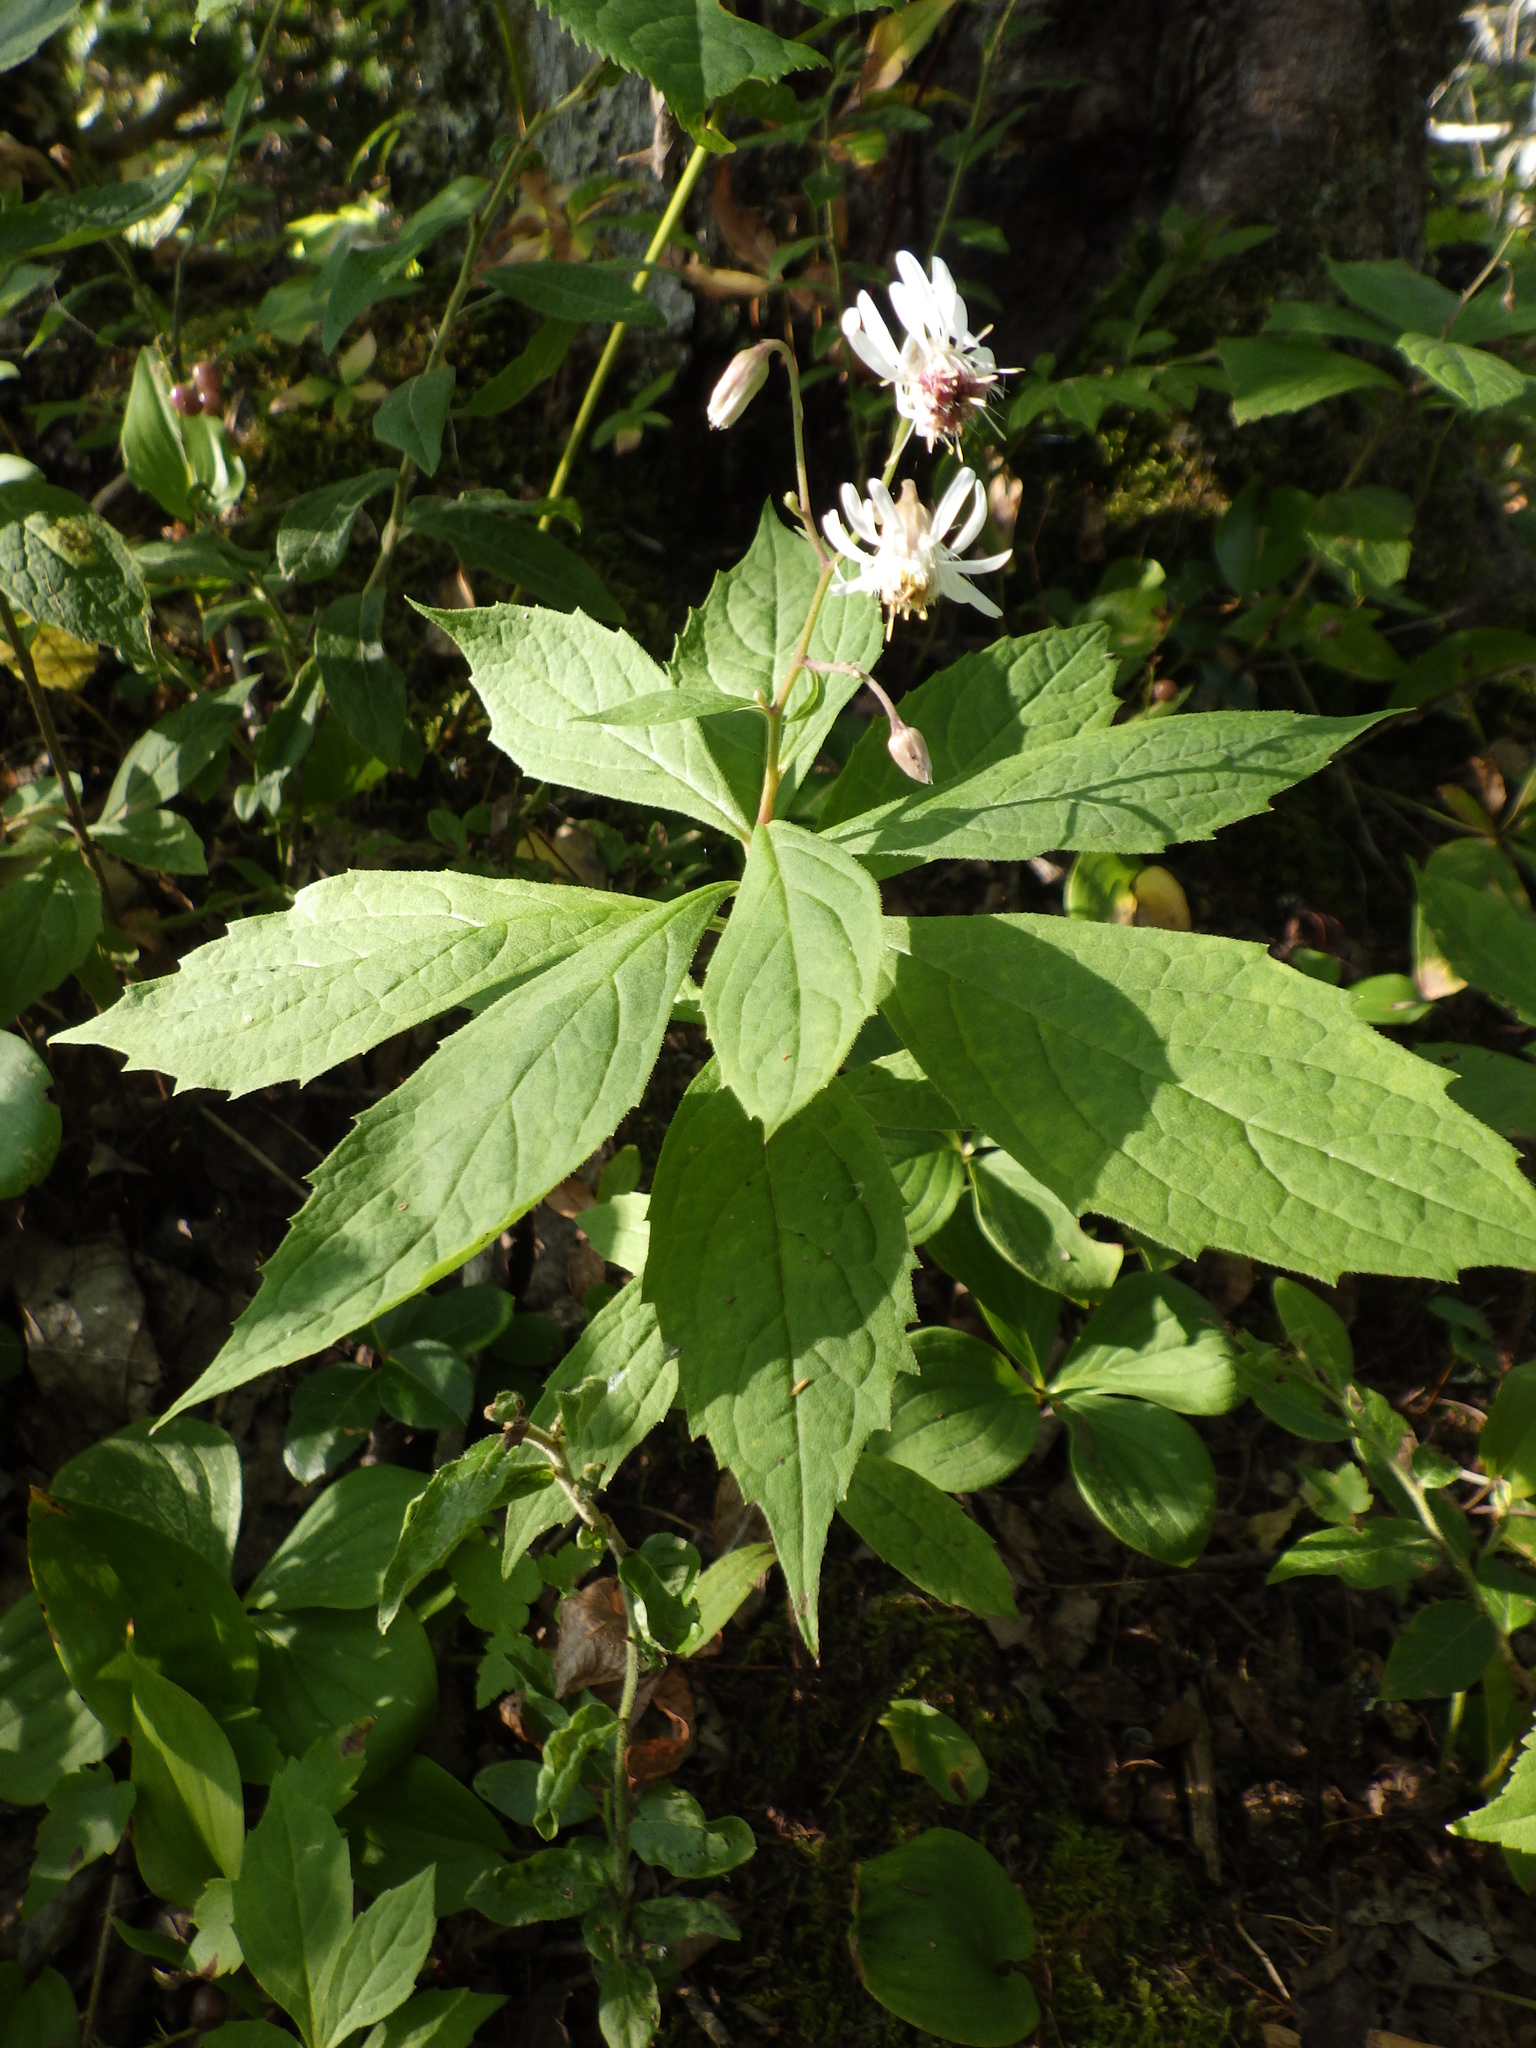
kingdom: Plantae
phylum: Tracheophyta
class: Magnoliopsida
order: Asterales
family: Asteraceae
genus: Oclemena
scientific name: Oclemena acuminata
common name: Mountain aster
